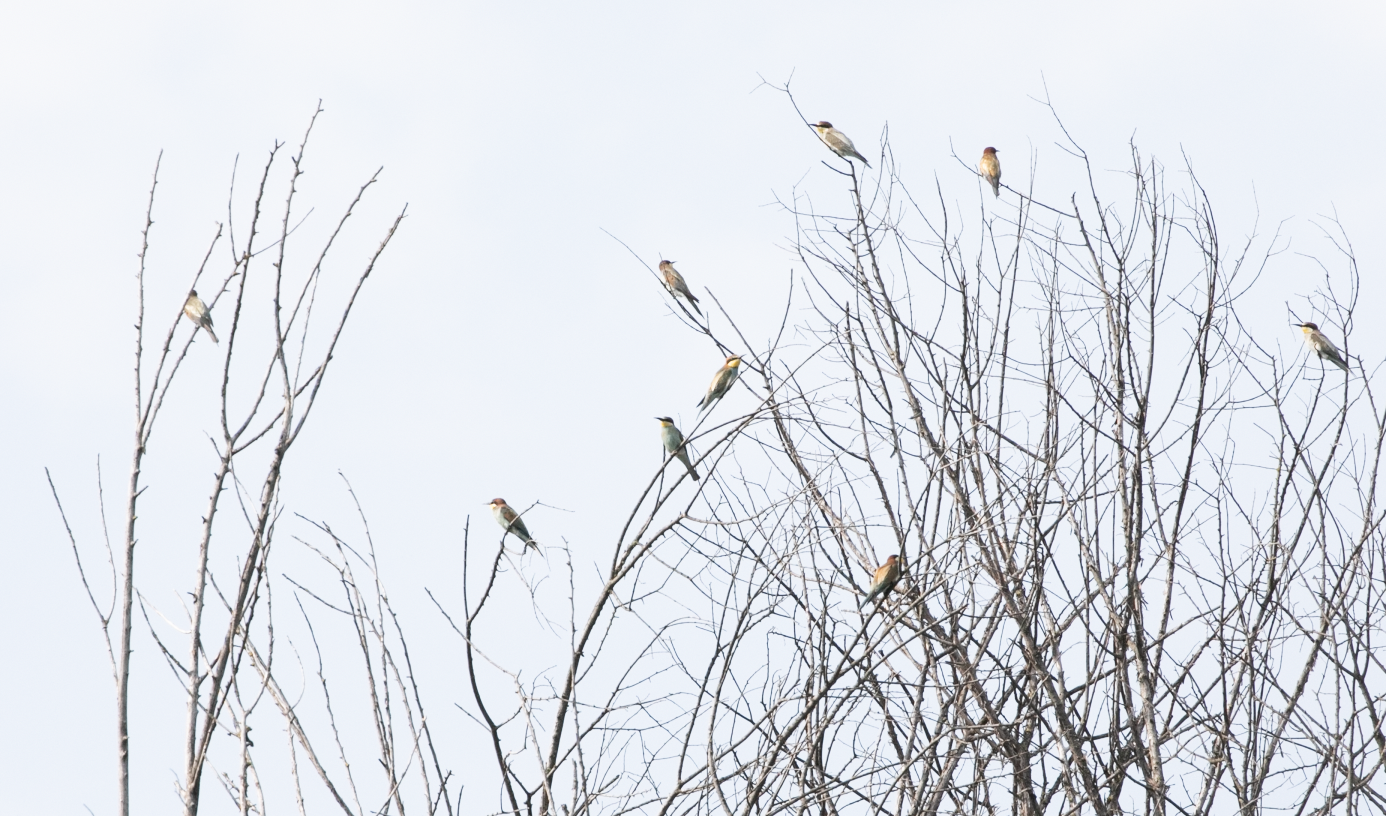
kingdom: Animalia
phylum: Chordata
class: Aves
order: Coraciiformes
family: Meropidae
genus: Merops
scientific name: Merops apiaster
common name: European bee-eater
